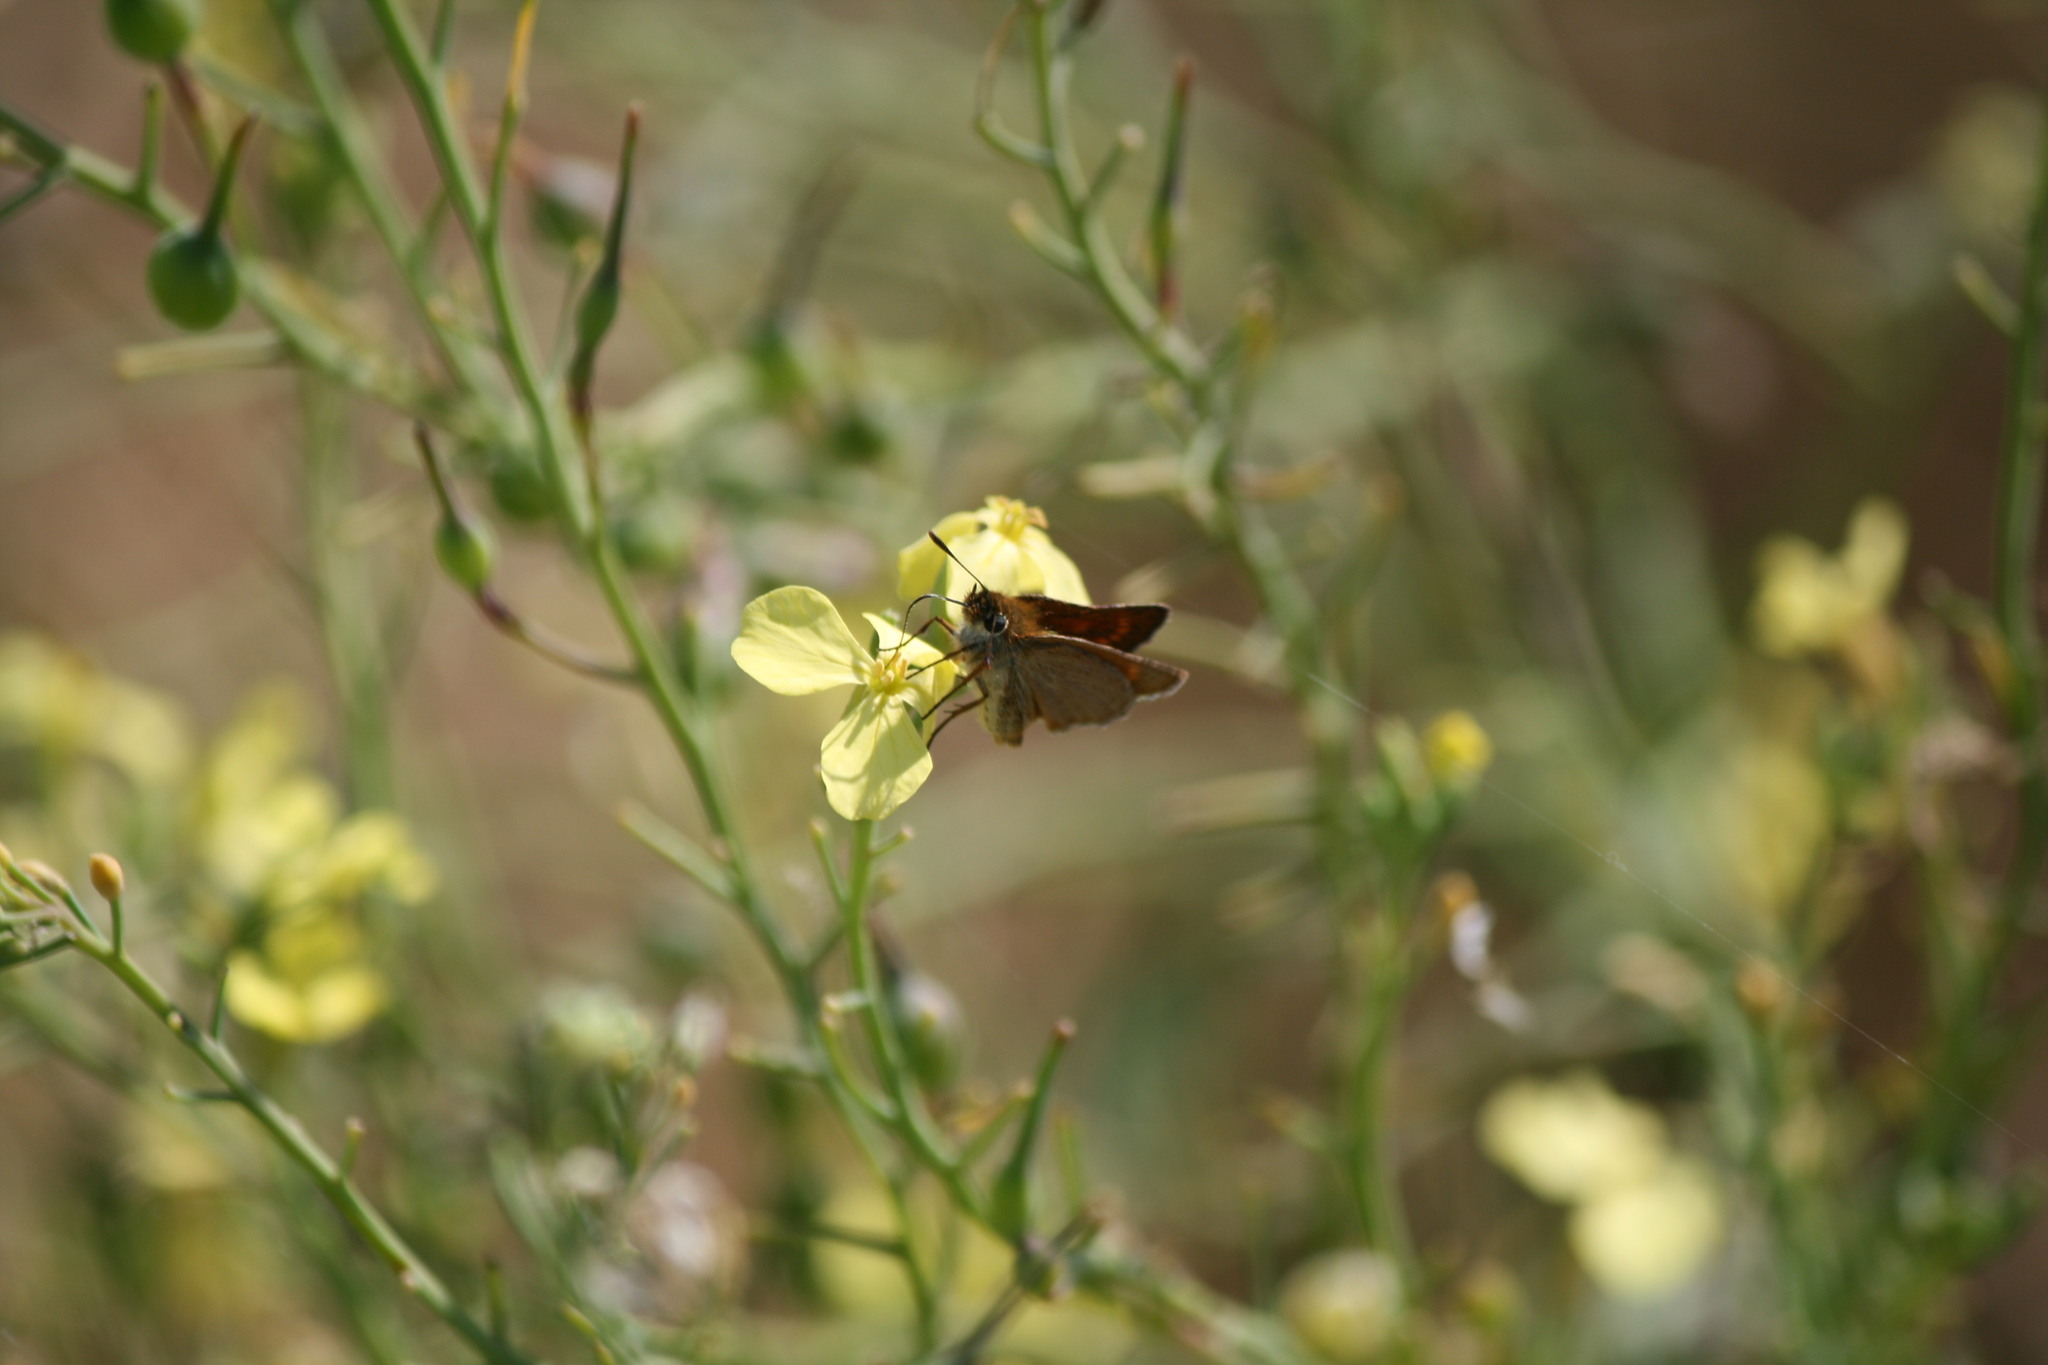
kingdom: Animalia
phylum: Arthropoda
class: Insecta
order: Lepidoptera
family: Hesperiidae
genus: Thymelicus
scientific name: Thymelicus acteon
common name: Lulworth skipper
